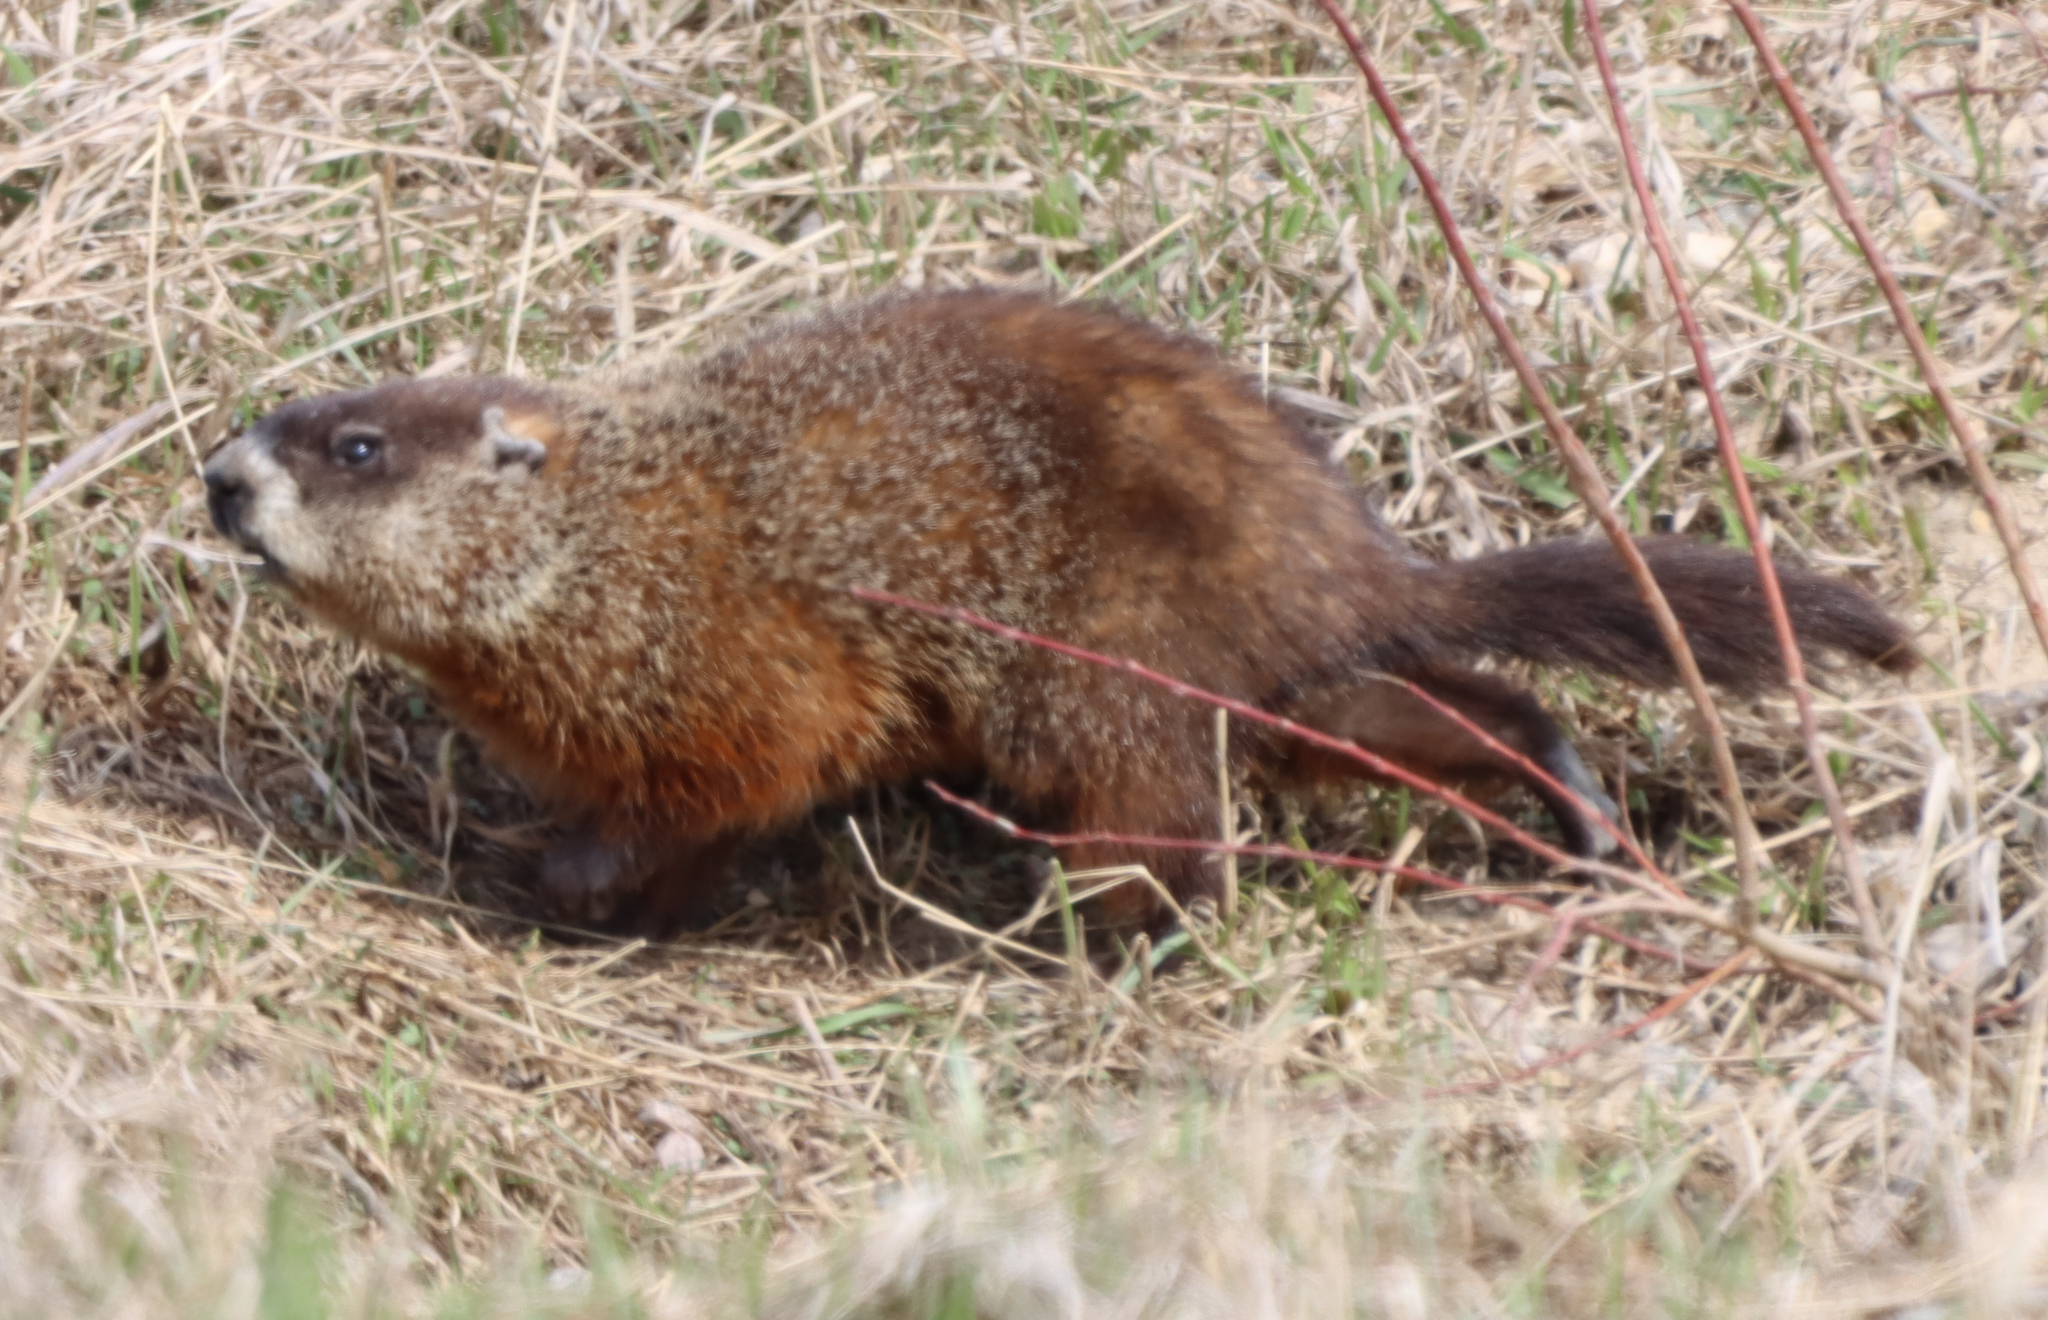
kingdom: Animalia
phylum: Chordata
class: Mammalia
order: Rodentia
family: Sciuridae
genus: Marmota
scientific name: Marmota monax
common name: Groundhog
